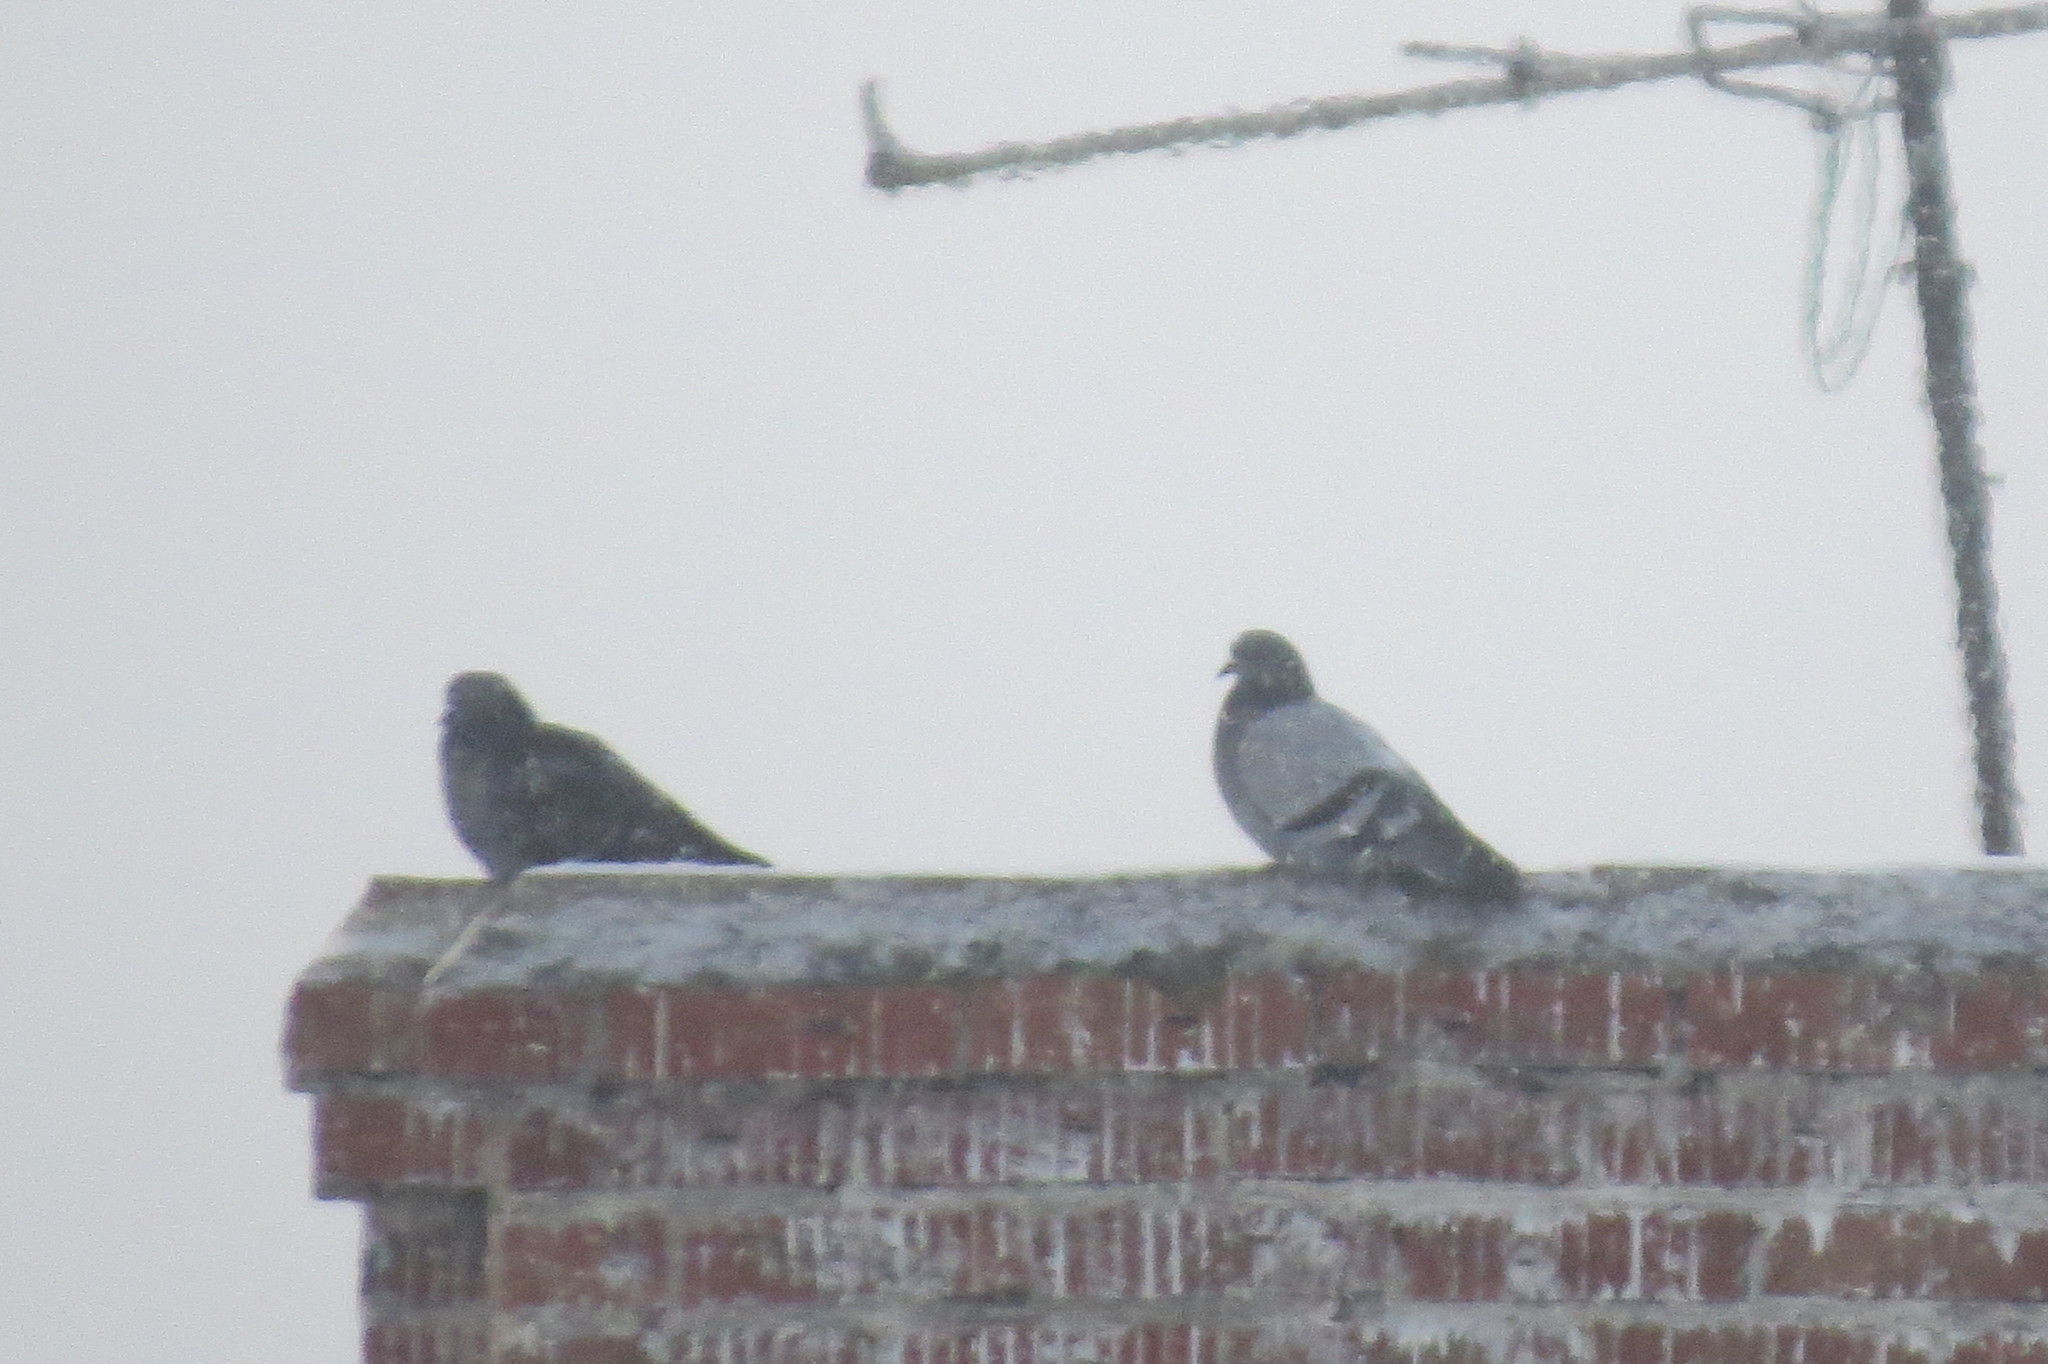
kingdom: Animalia
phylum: Chordata
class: Aves
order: Columbiformes
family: Columbidae
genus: Columba
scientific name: Columba livia
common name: Rock pigeon
